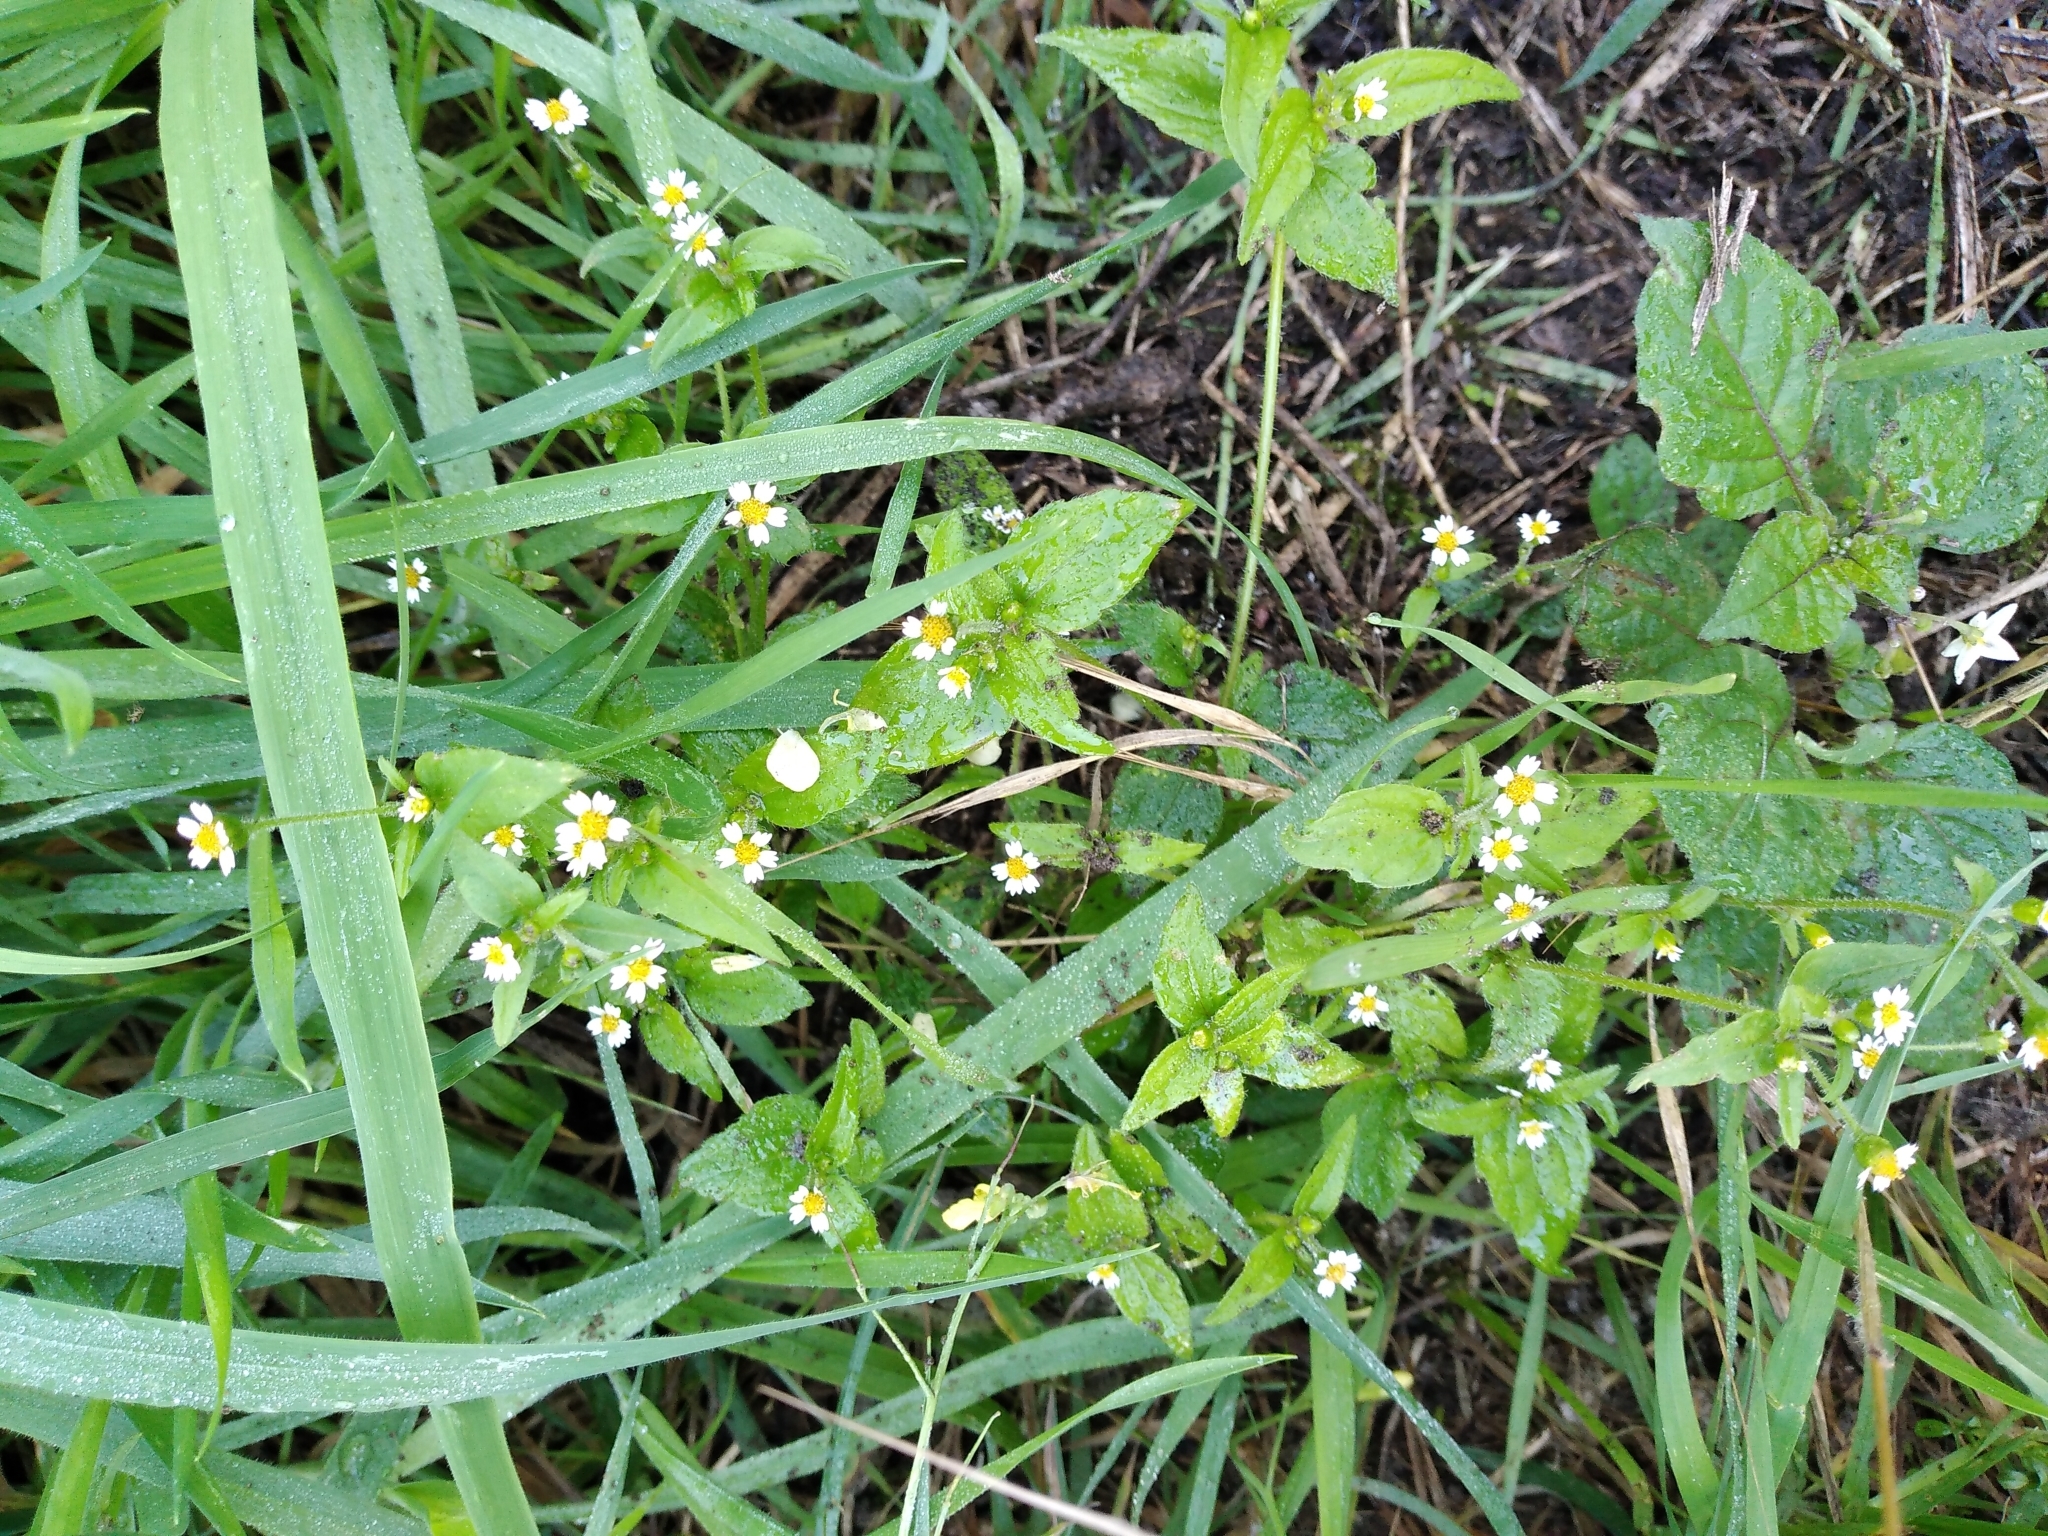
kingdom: Plantae
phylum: Tracheophyta
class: Magnoliopsida
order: Asterales
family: Asteraceae
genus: Galinsoga
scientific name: Galinsoga quadriradiata
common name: Shaggy soldier
